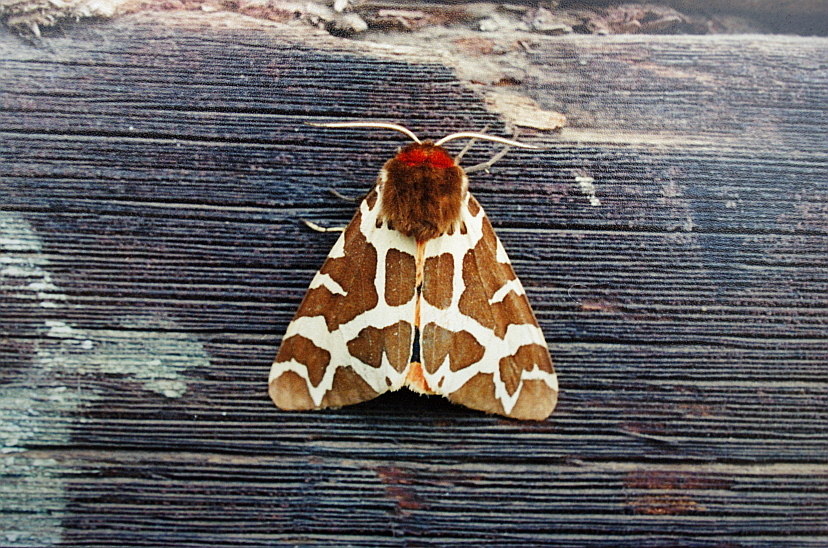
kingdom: Animalia
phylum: Arthropoda
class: Insecta
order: Lepidoptera
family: Erebidae
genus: Arctia
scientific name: Arctia caja
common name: Garden tiger
